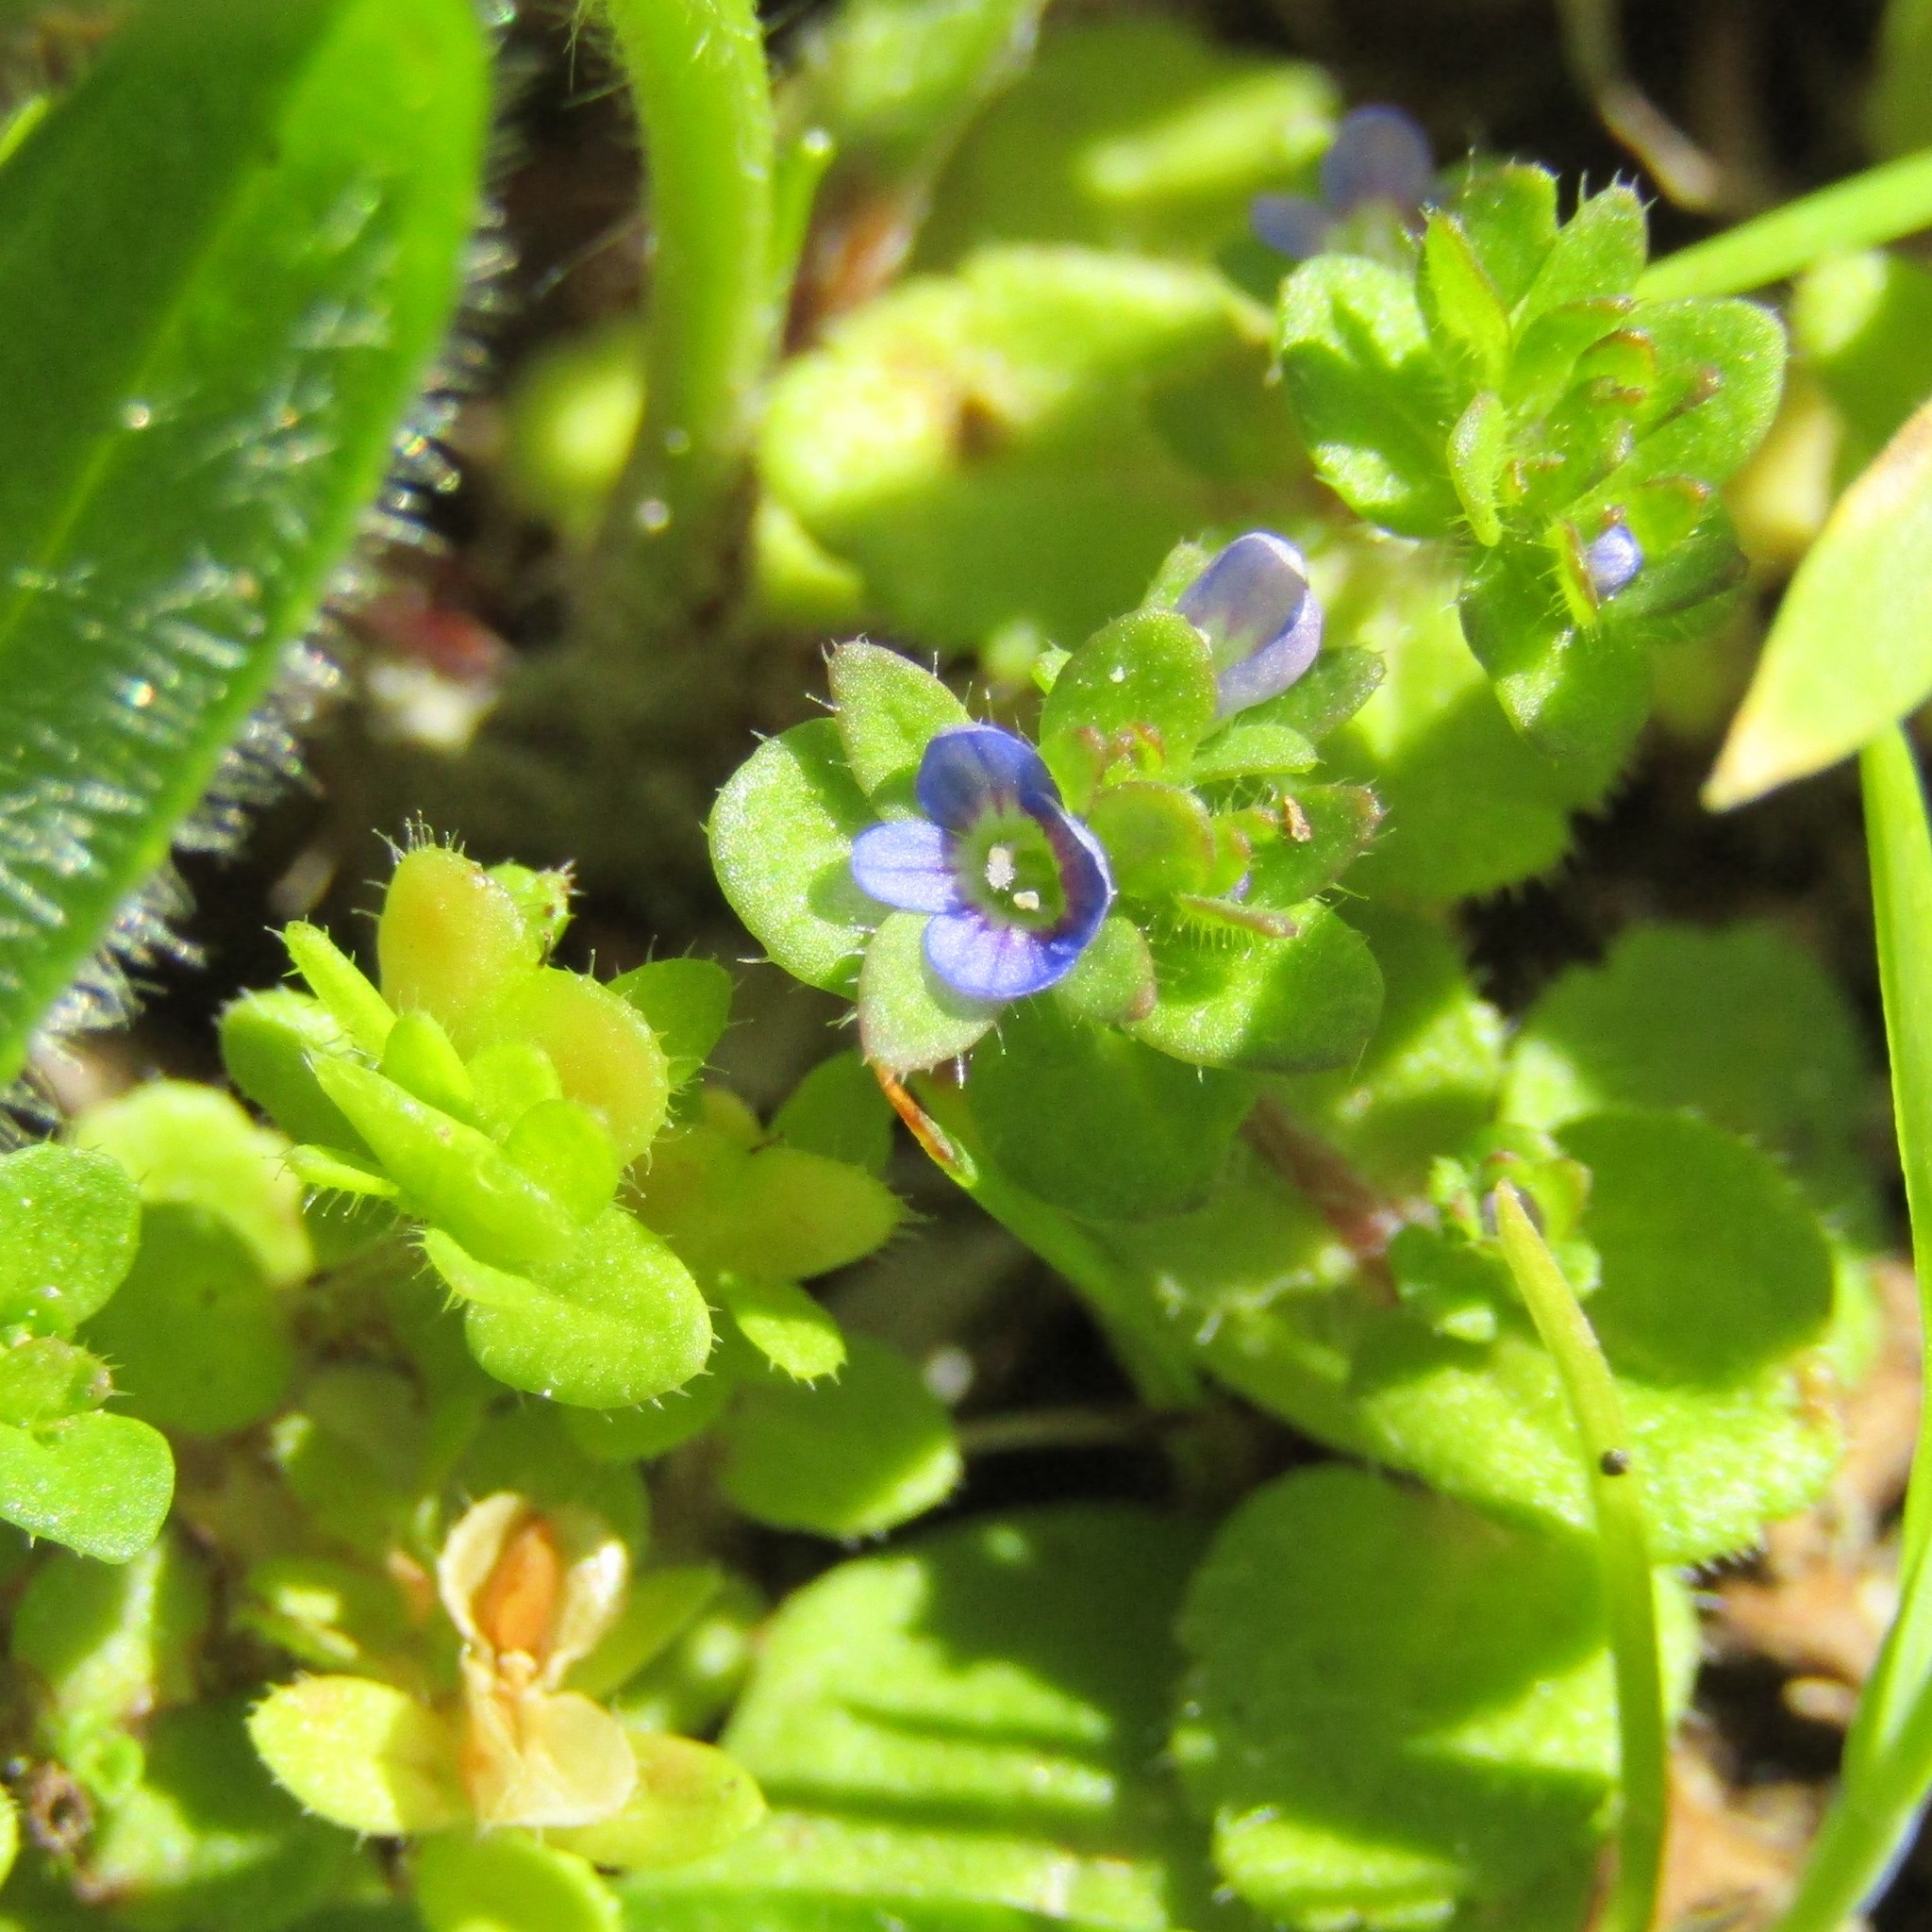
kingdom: Plantae
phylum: Tracheophyta
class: Magnoliopsida
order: Lamiales
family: Plantaginaceae
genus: Veronica
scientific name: Veronica persica
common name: Common field-speedwell
